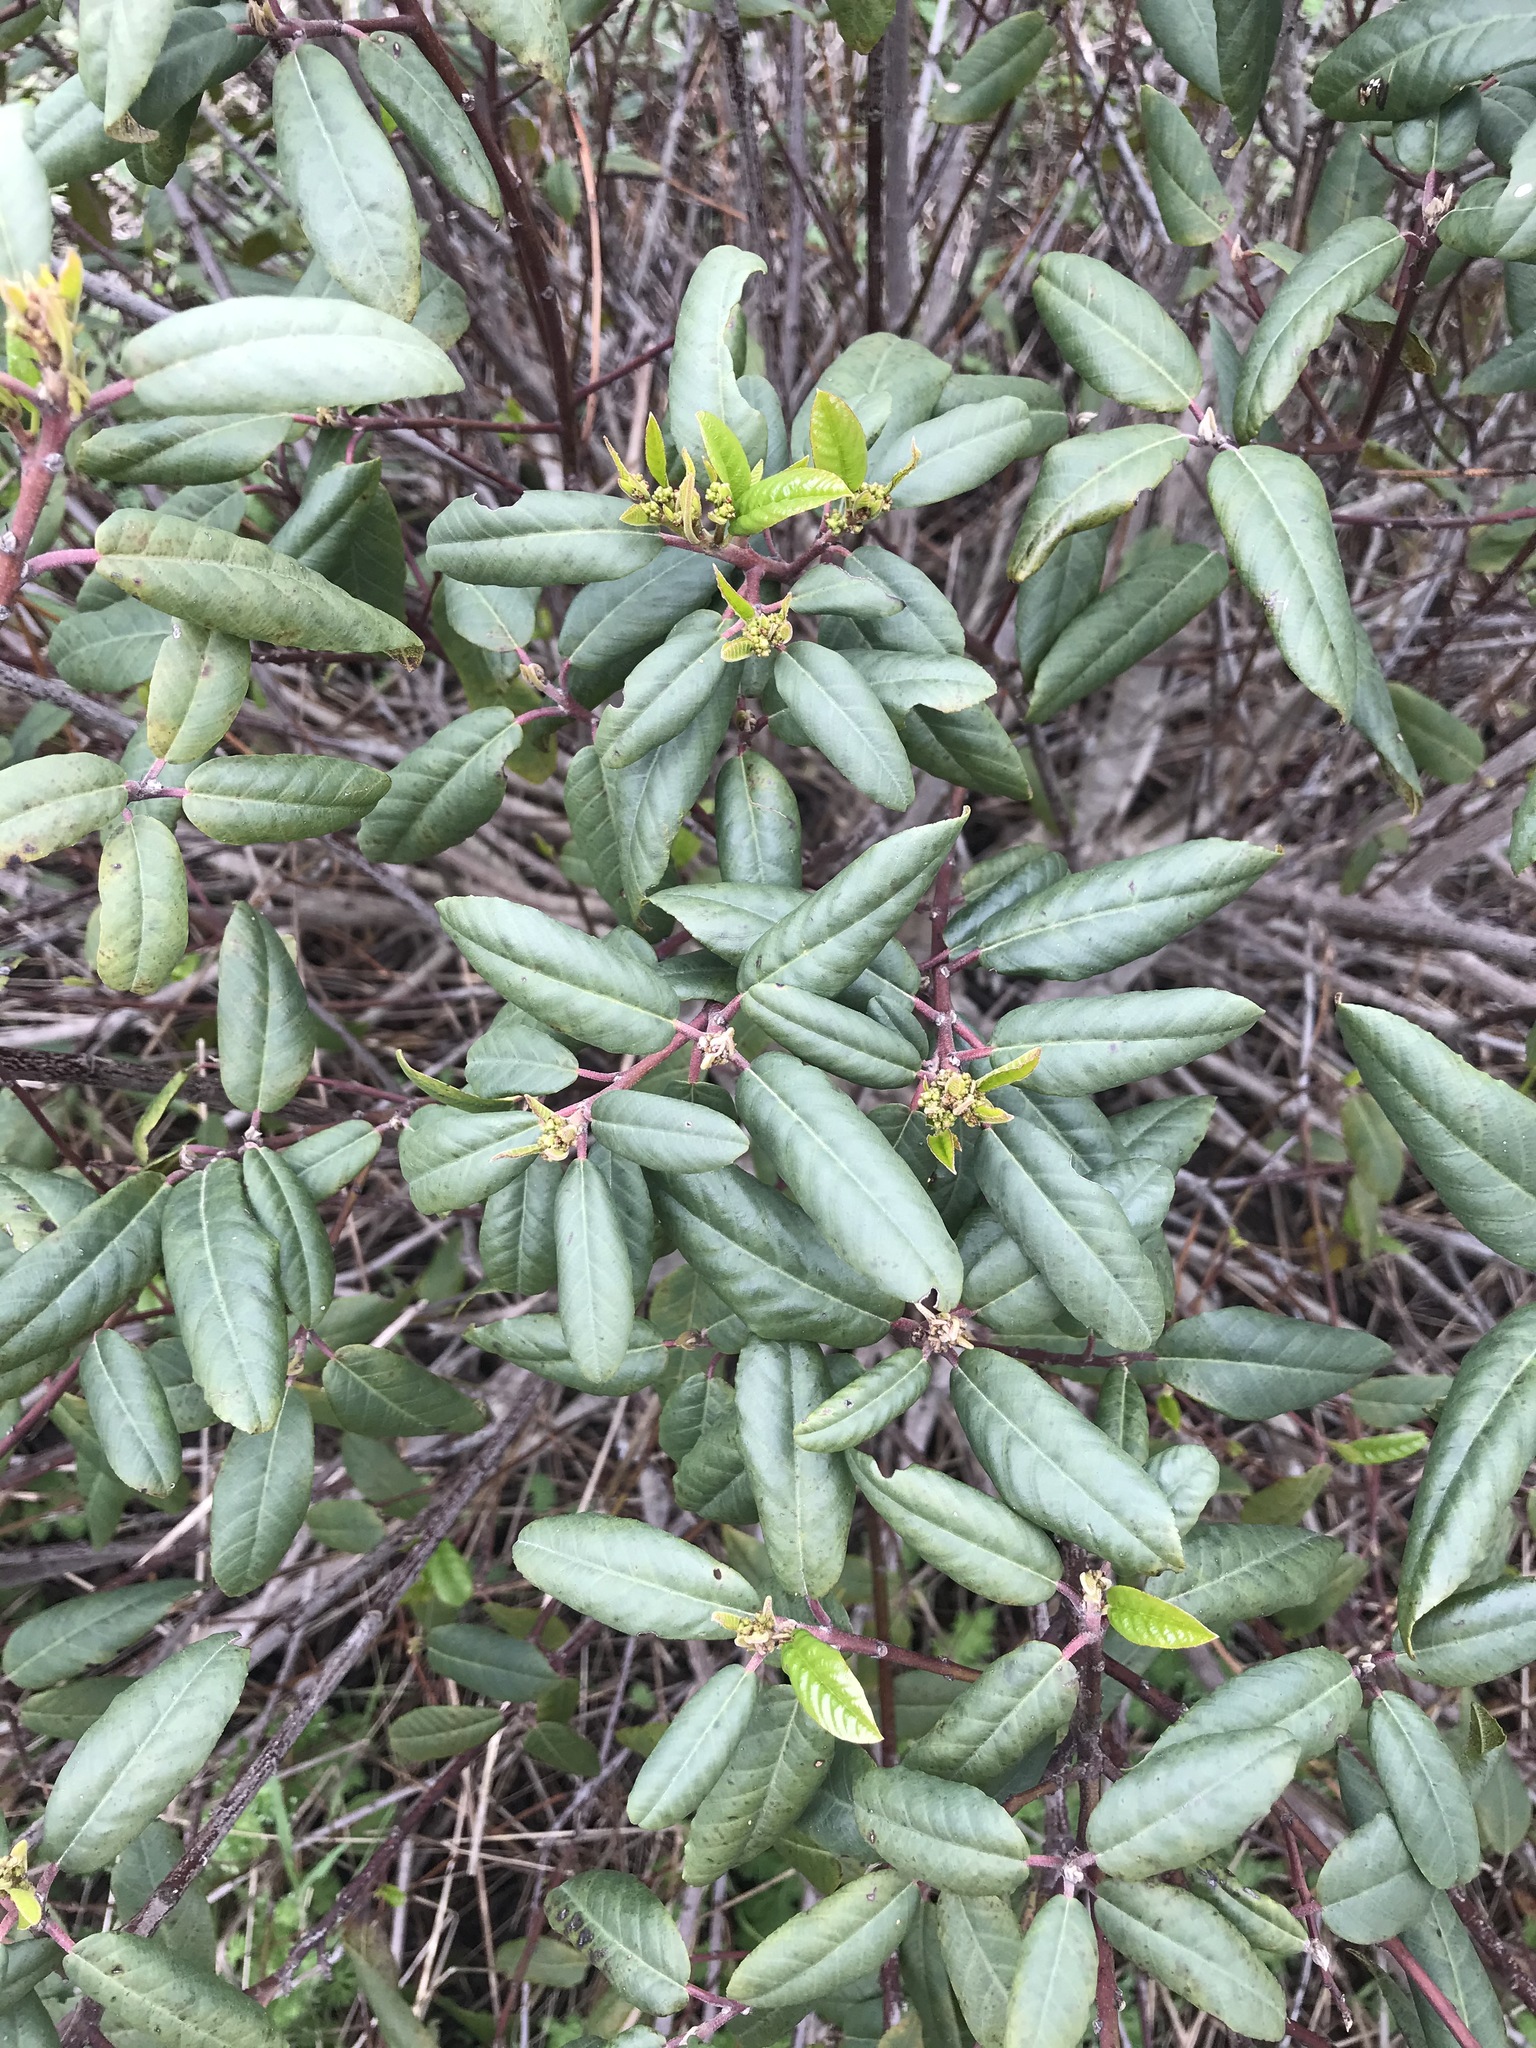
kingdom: Plantae
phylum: Tracheophyta
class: Magnoliopsida
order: Rosales
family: Rhamnaceae
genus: Frangula
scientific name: Frangula californica
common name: California buckthorn
